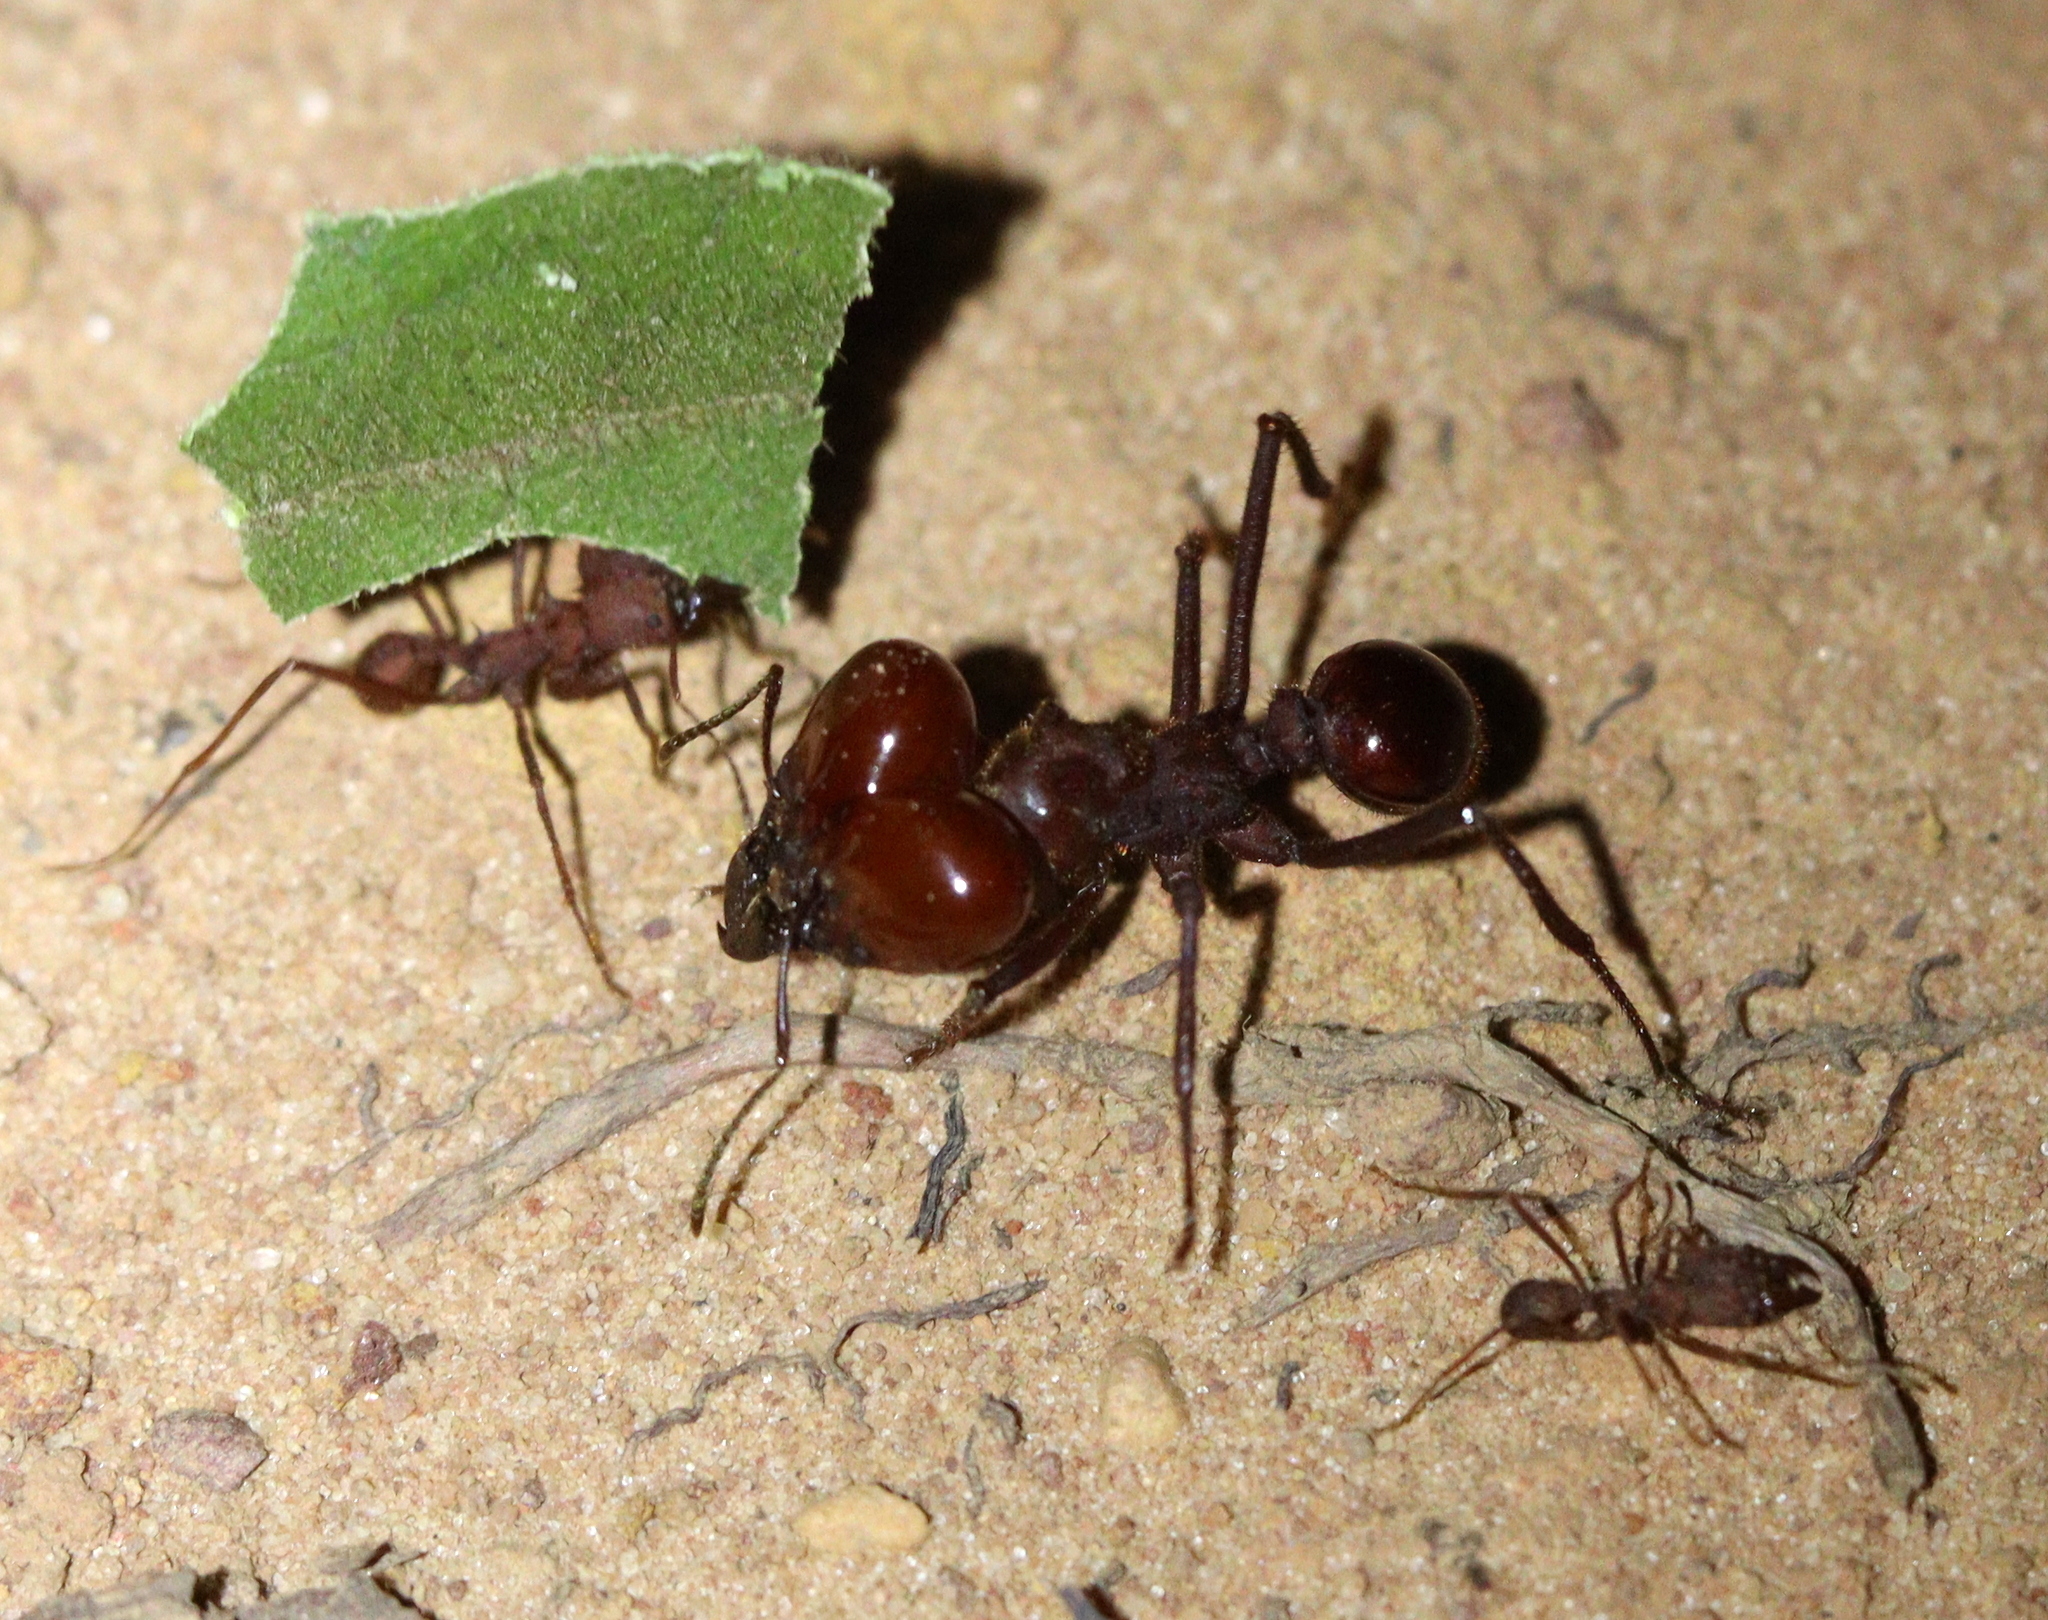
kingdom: Animalia
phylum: Arthropoda
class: Insecta
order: Hymenoptera
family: Formicidae
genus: Atta
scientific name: Atta laevigata
